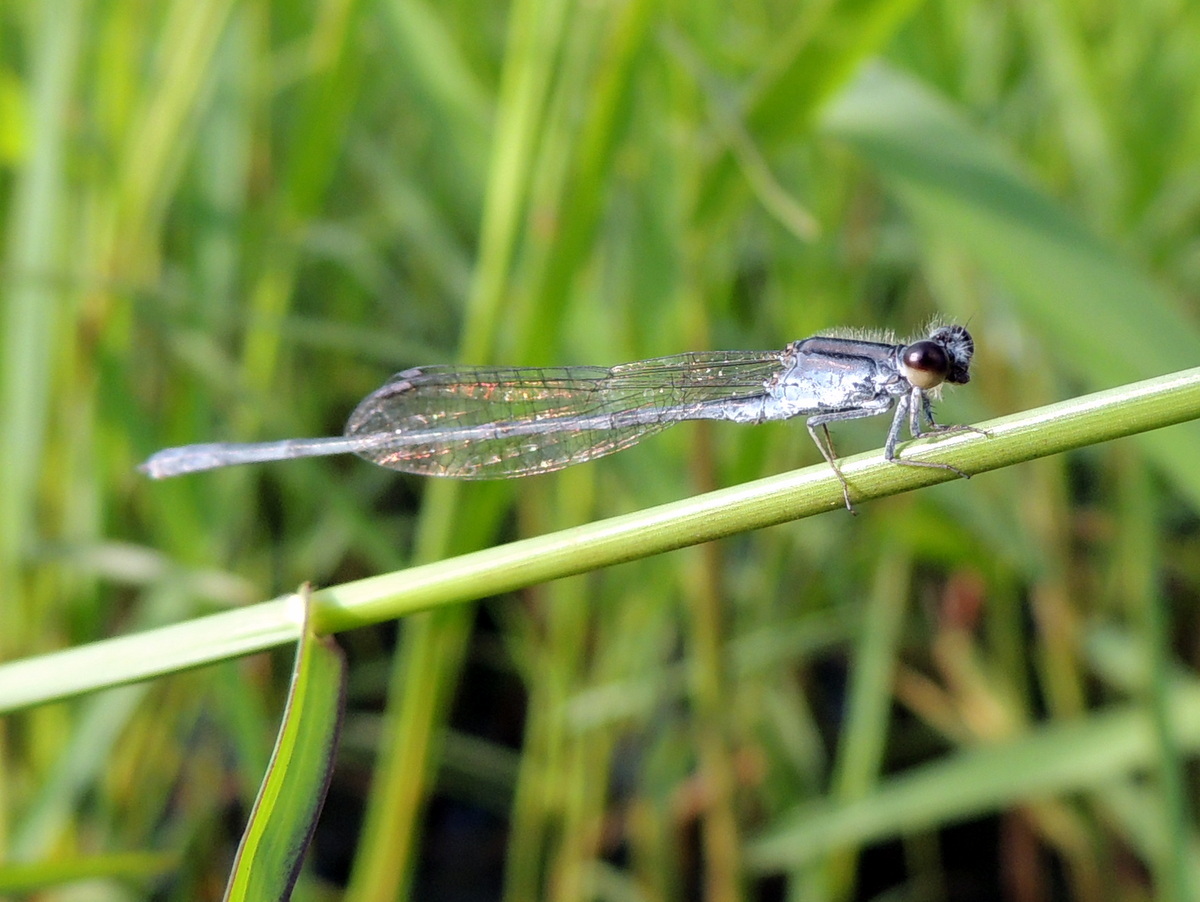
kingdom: Animalia
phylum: Arthropoda
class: Insecta
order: Odonata
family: Coenagrionidae
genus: Pseudagrion
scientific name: Pseudagrion hypermelas
